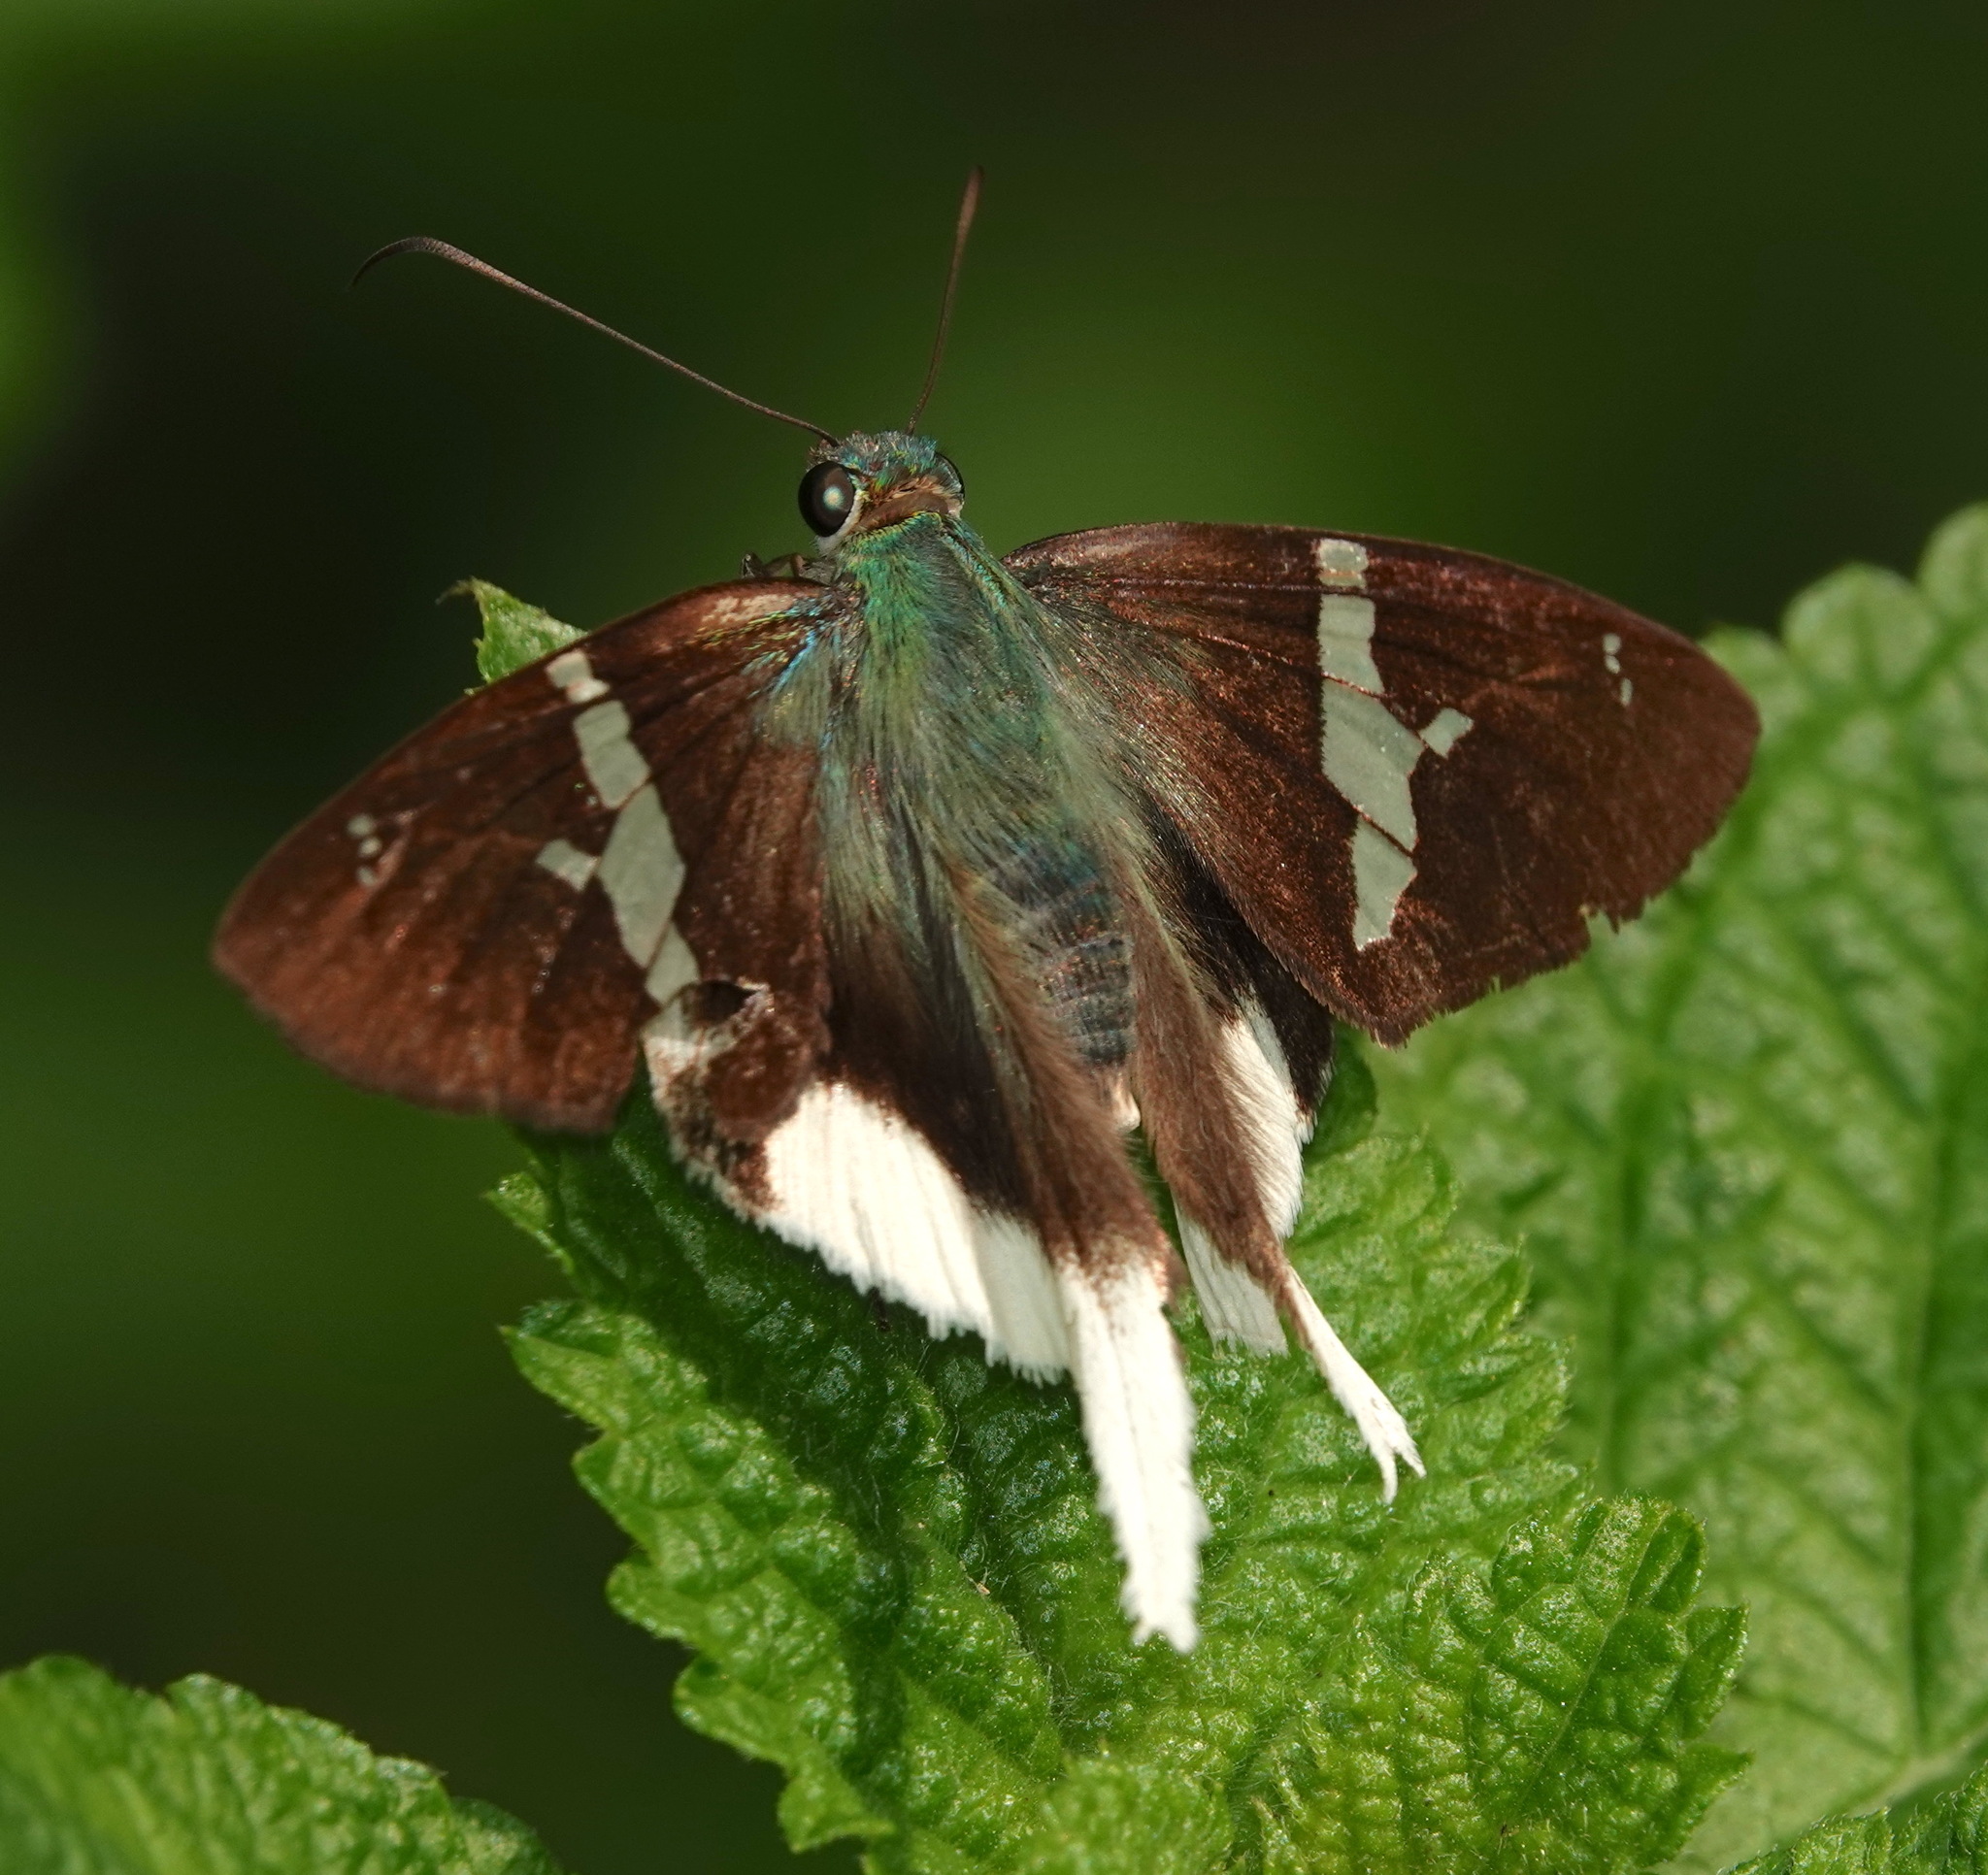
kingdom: Animalia
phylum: Arthropoda
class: Insecta
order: Lepidoptera
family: Hesperiidae
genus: Urbanus
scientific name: Urbanus chalco
